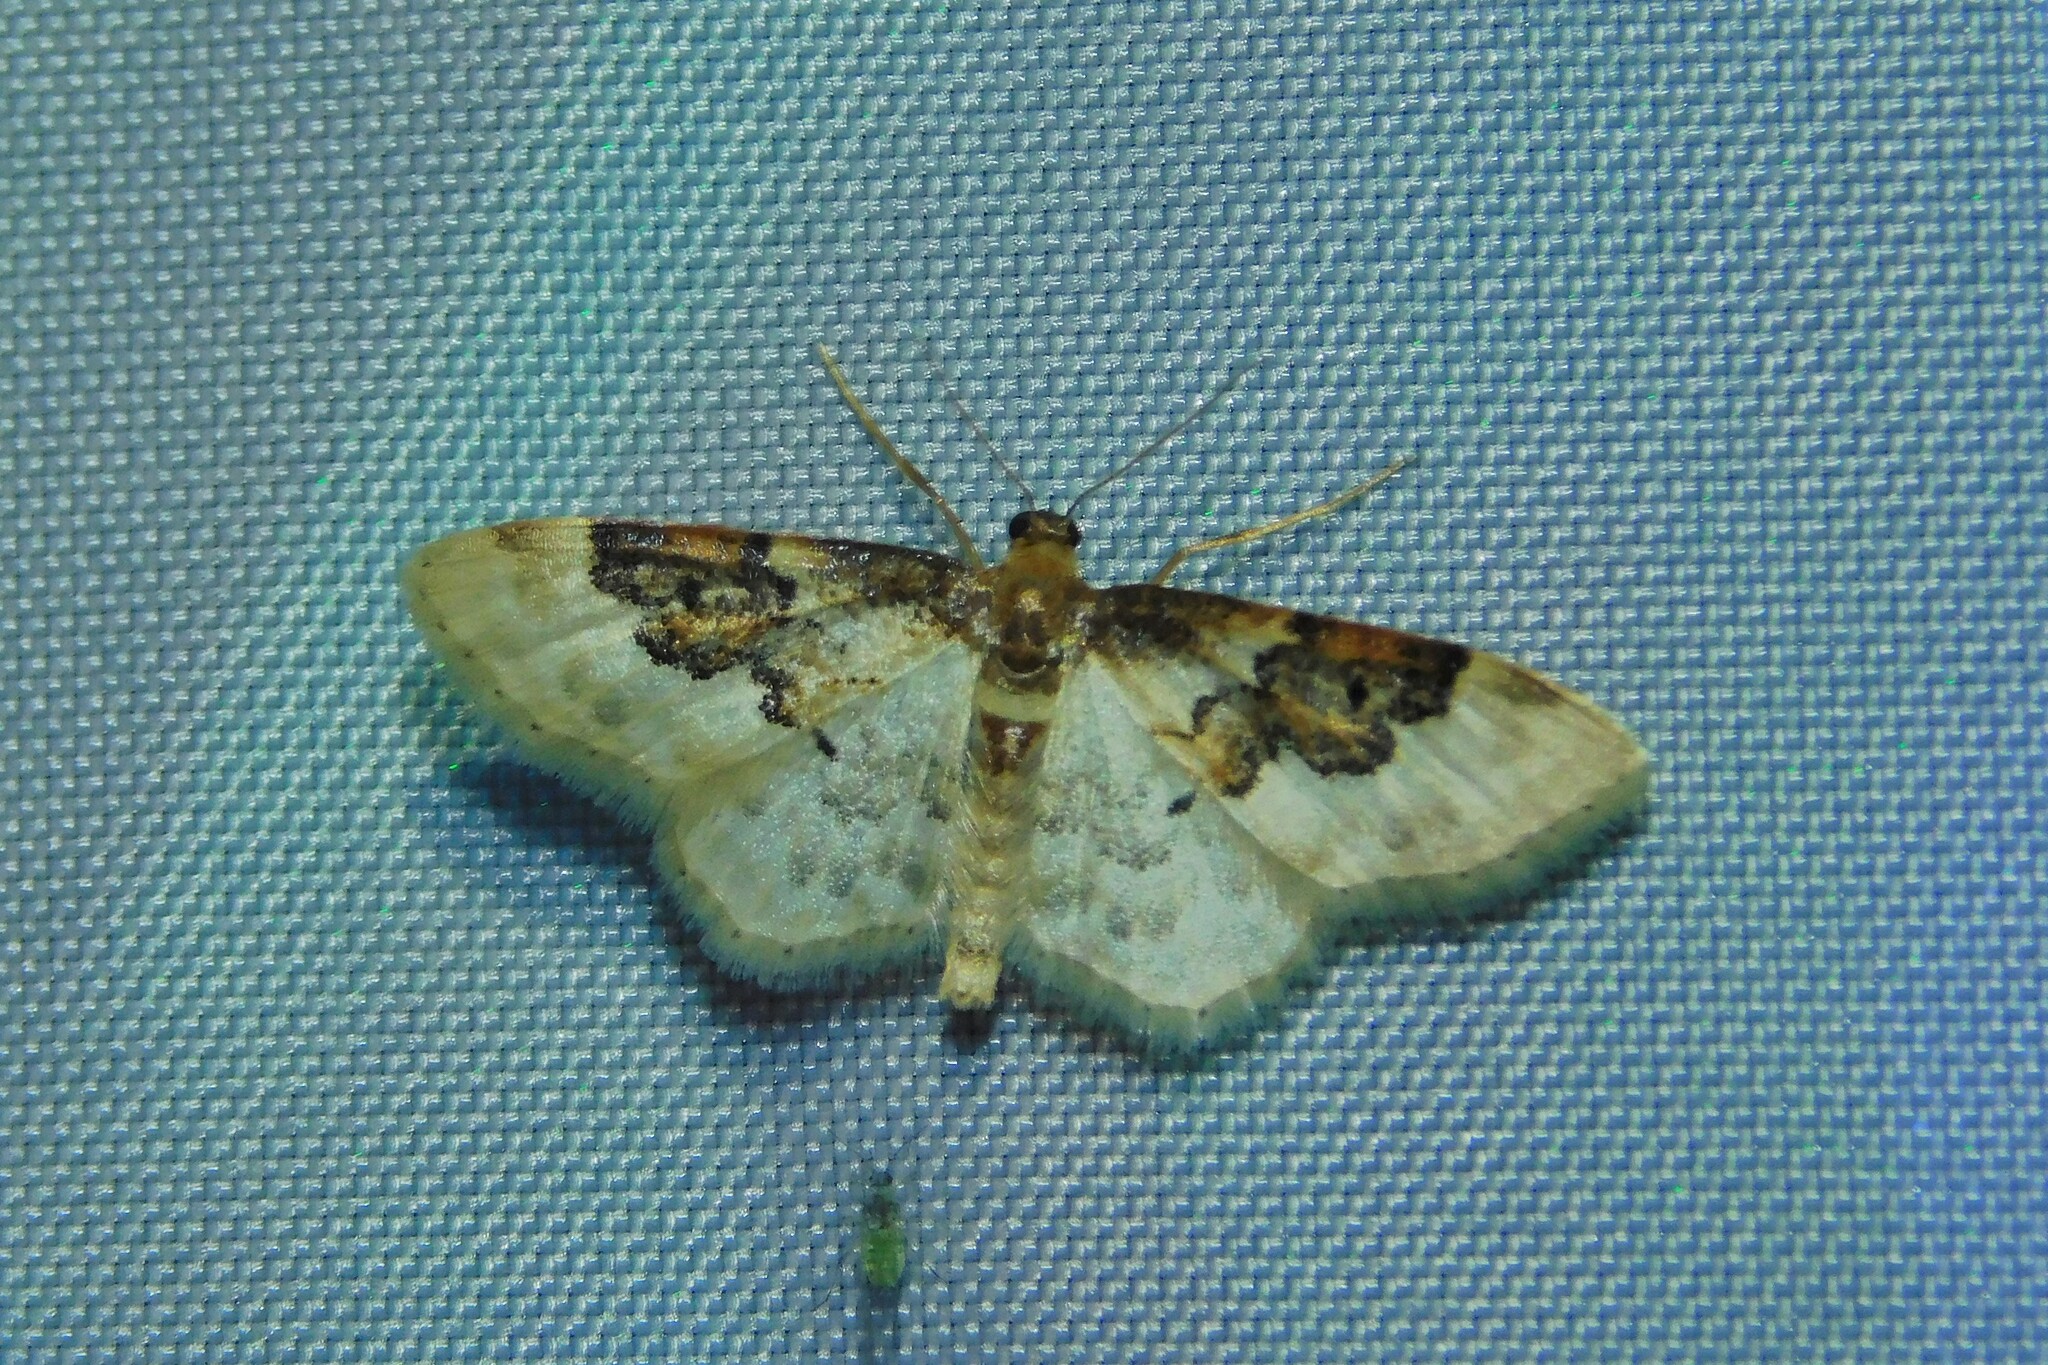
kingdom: Animalia
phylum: Arthropoda
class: Insecta
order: Lepidoptera
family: Geometridae
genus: Idaea
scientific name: Idaea rusticata
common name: Least carpet
